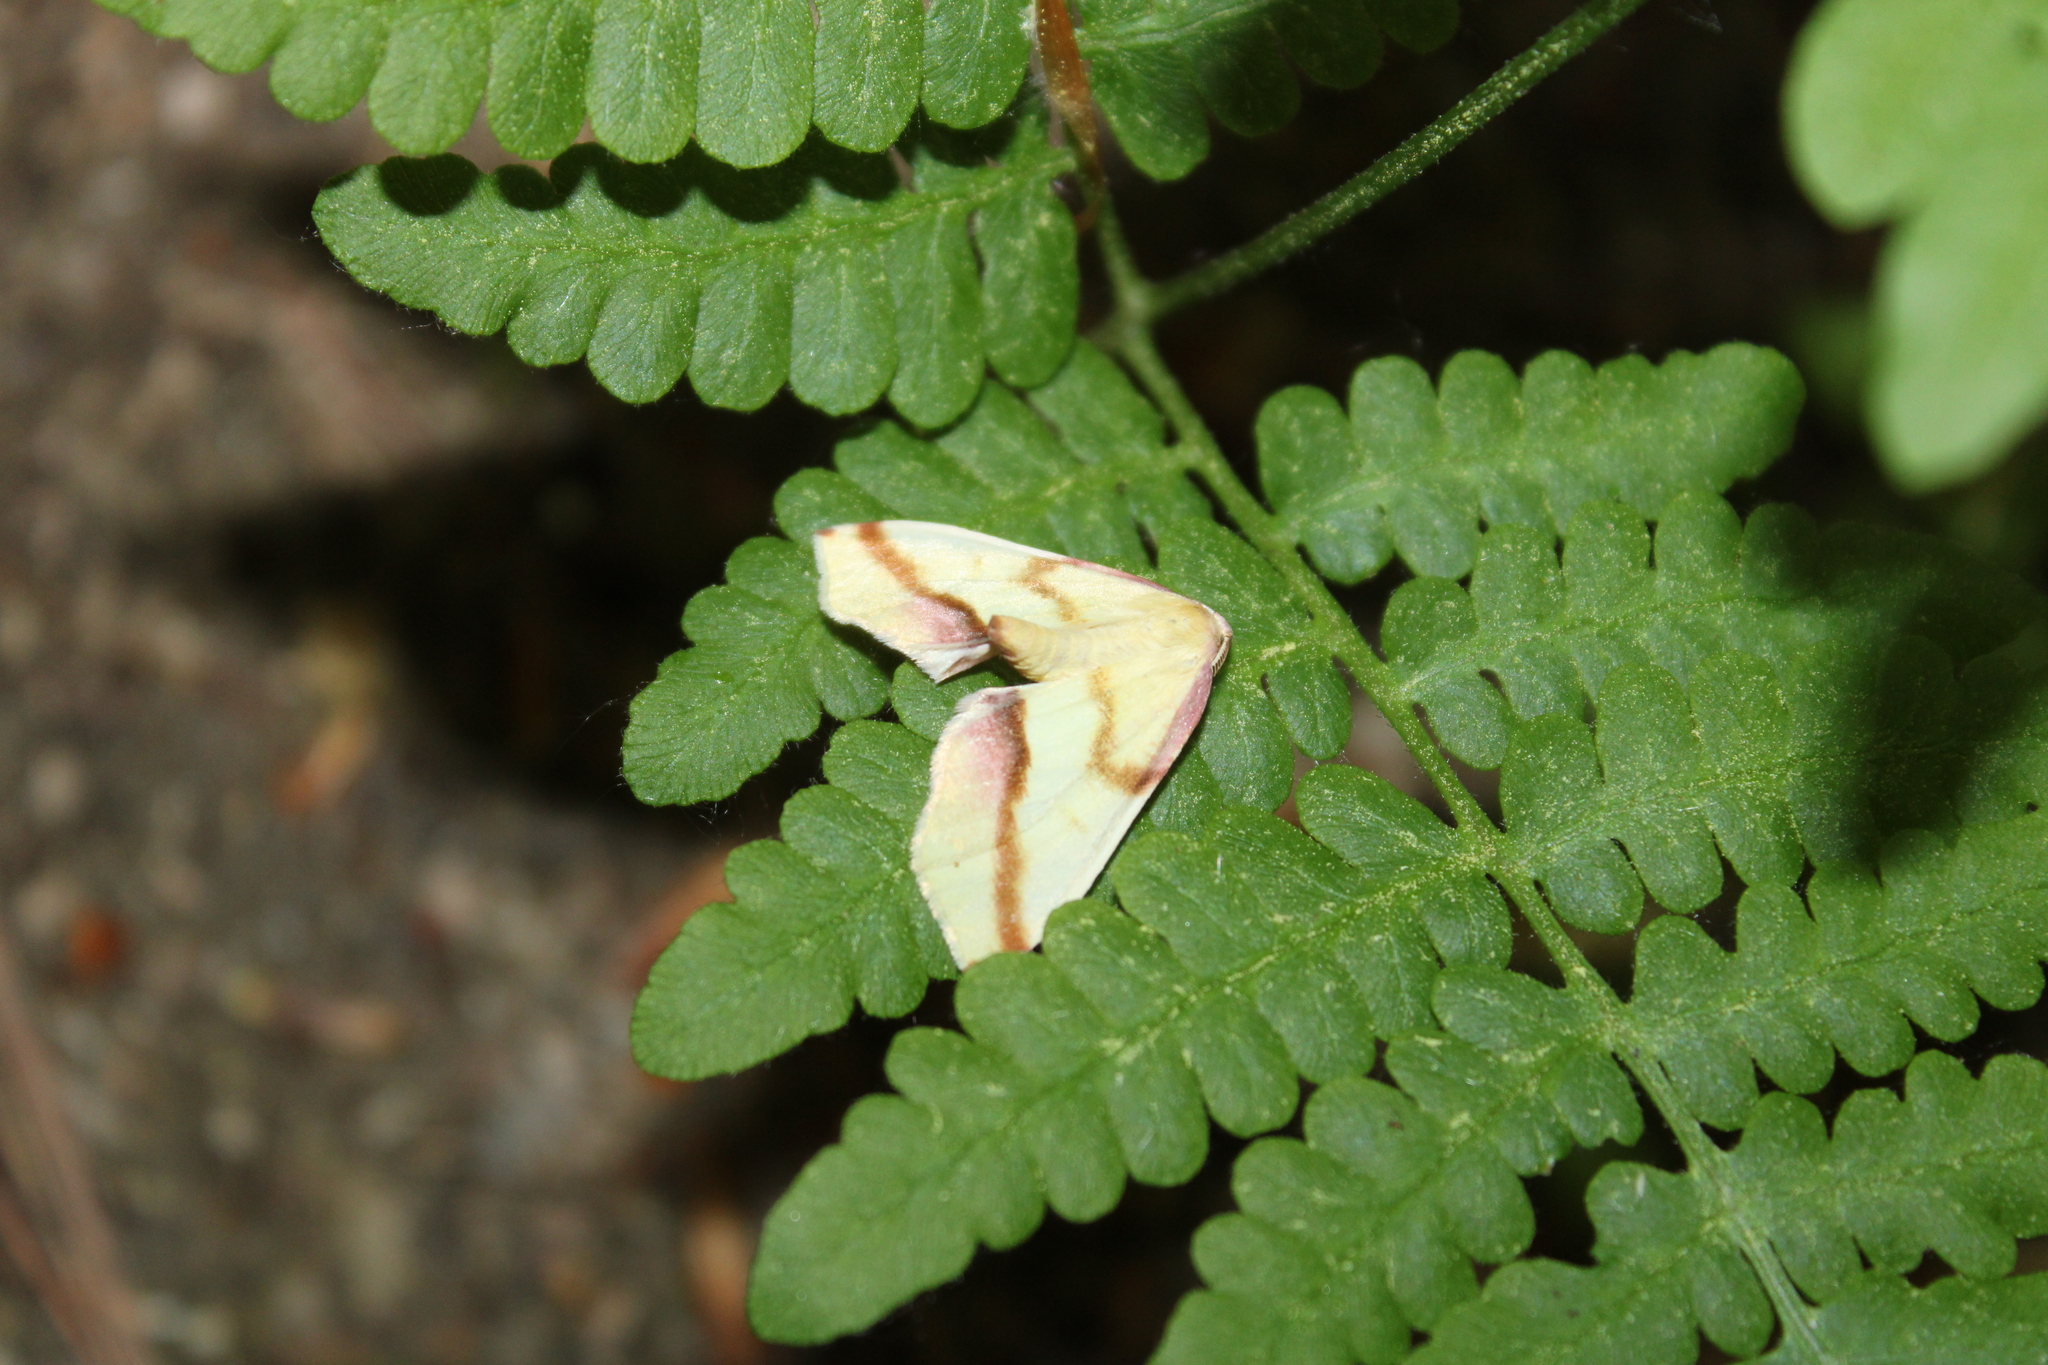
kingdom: Animalia
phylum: Arthropoda
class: Insecta
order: Lepidoptera
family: Geometridae
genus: Plagodis
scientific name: Plagodis serinaria
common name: Lemon plagodis
